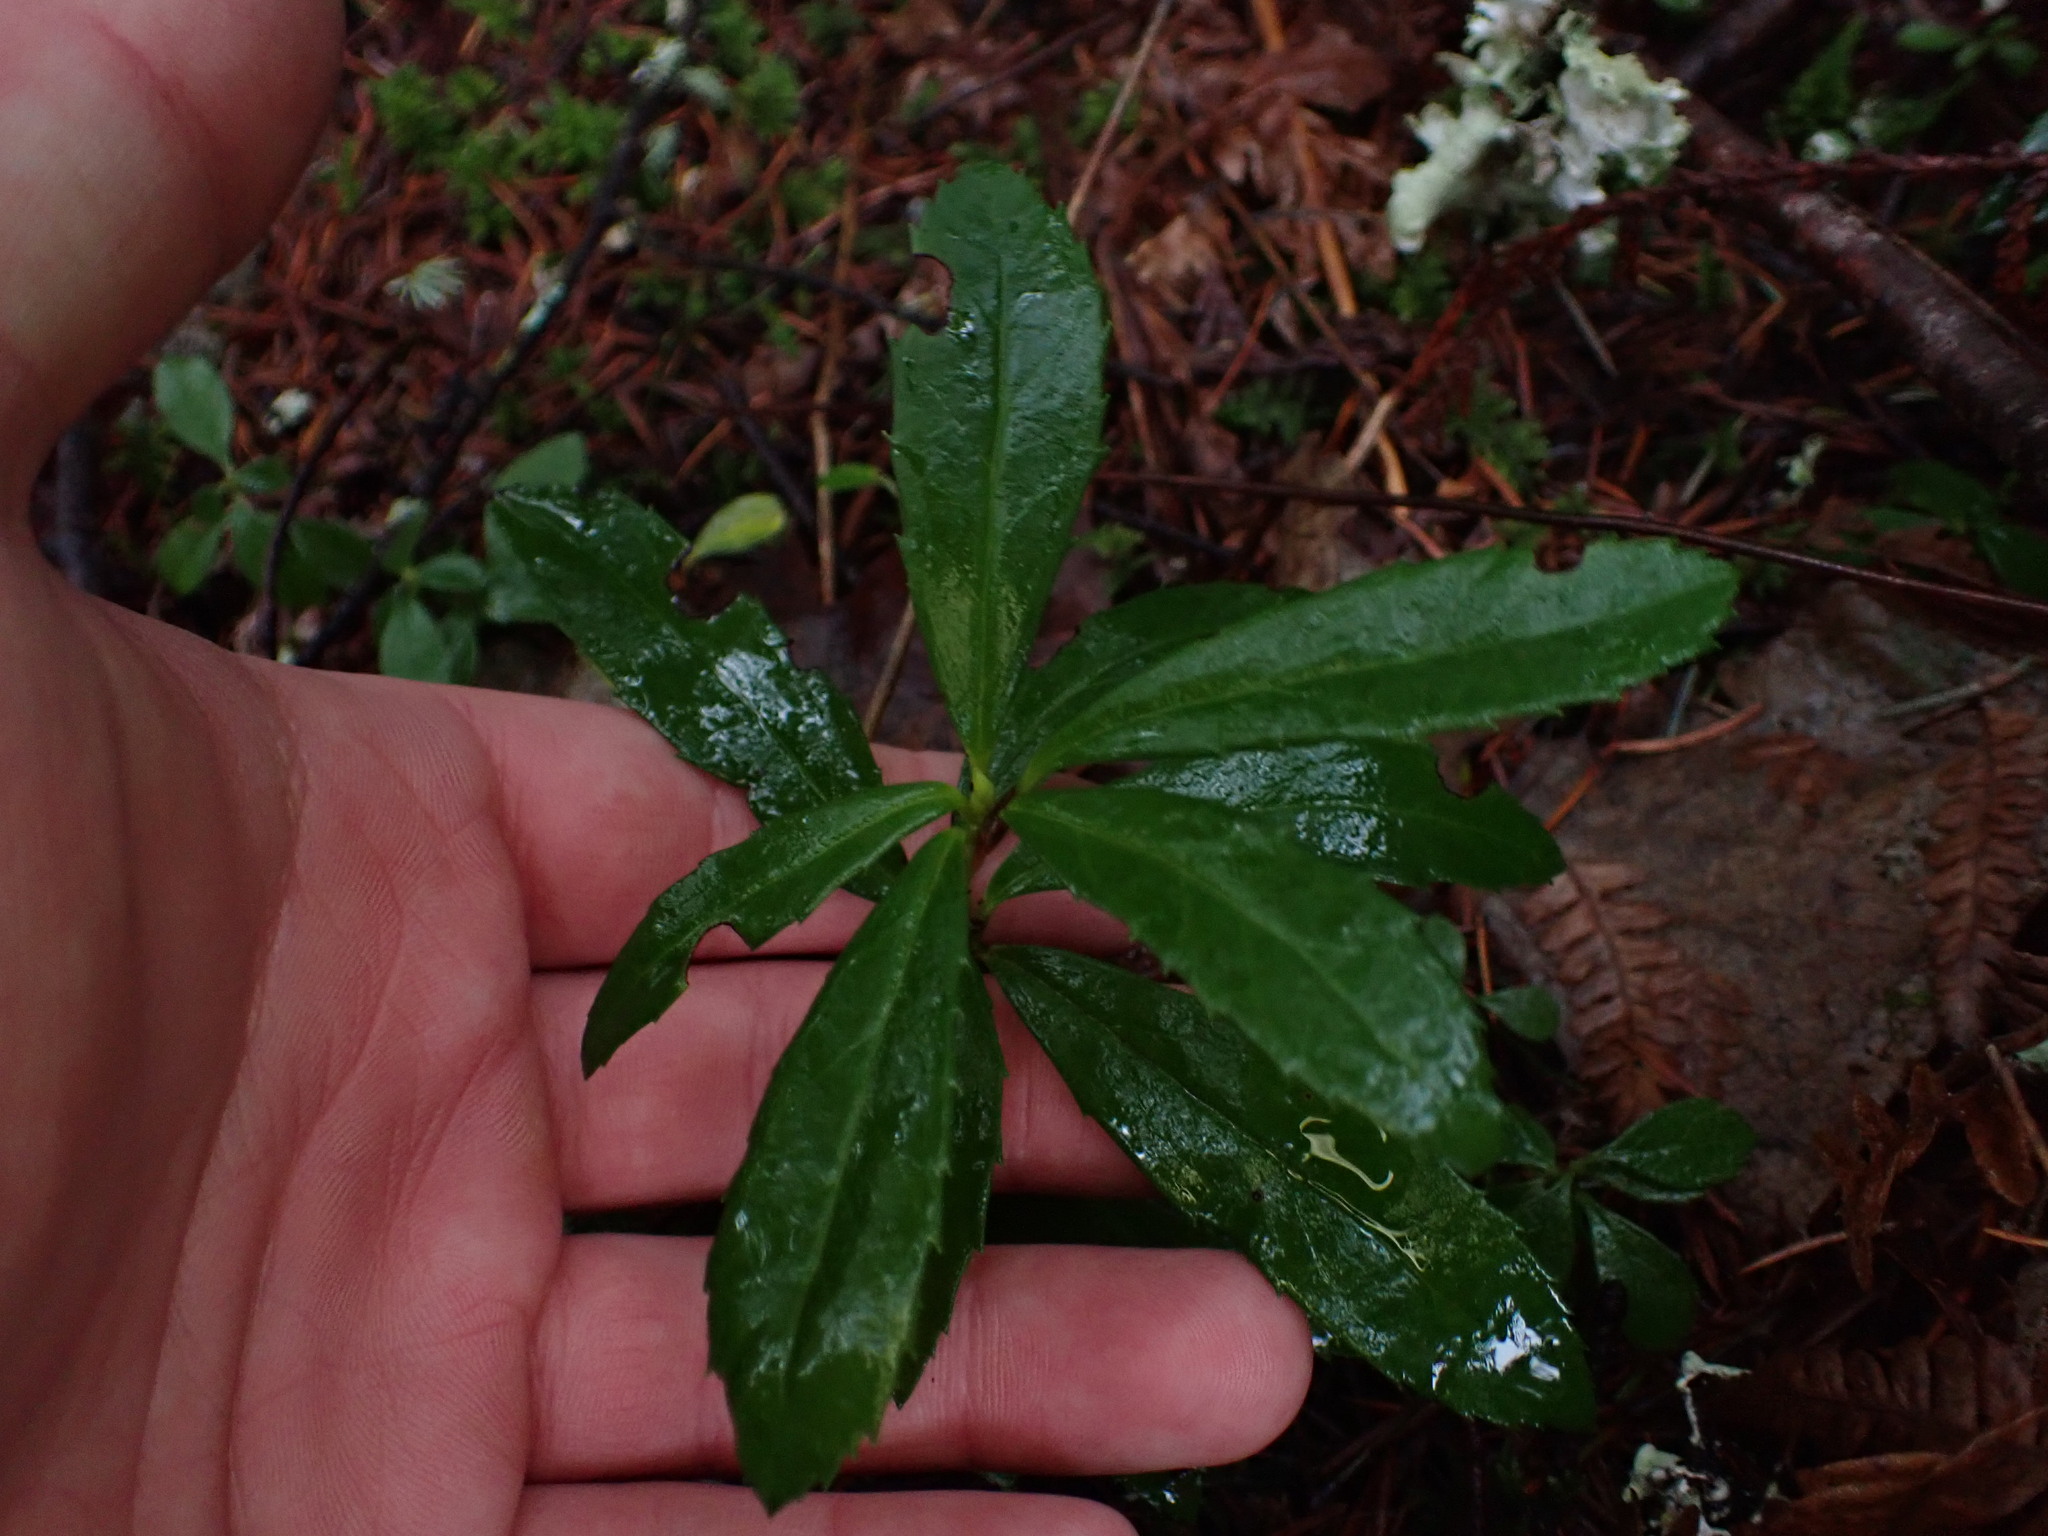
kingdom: Plantae
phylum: Tracheophyta
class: Magnoliopsida
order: Ericales
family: Ericaceae
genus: Chimaphila
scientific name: Chimaphila umbellata
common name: Pipsissewa
